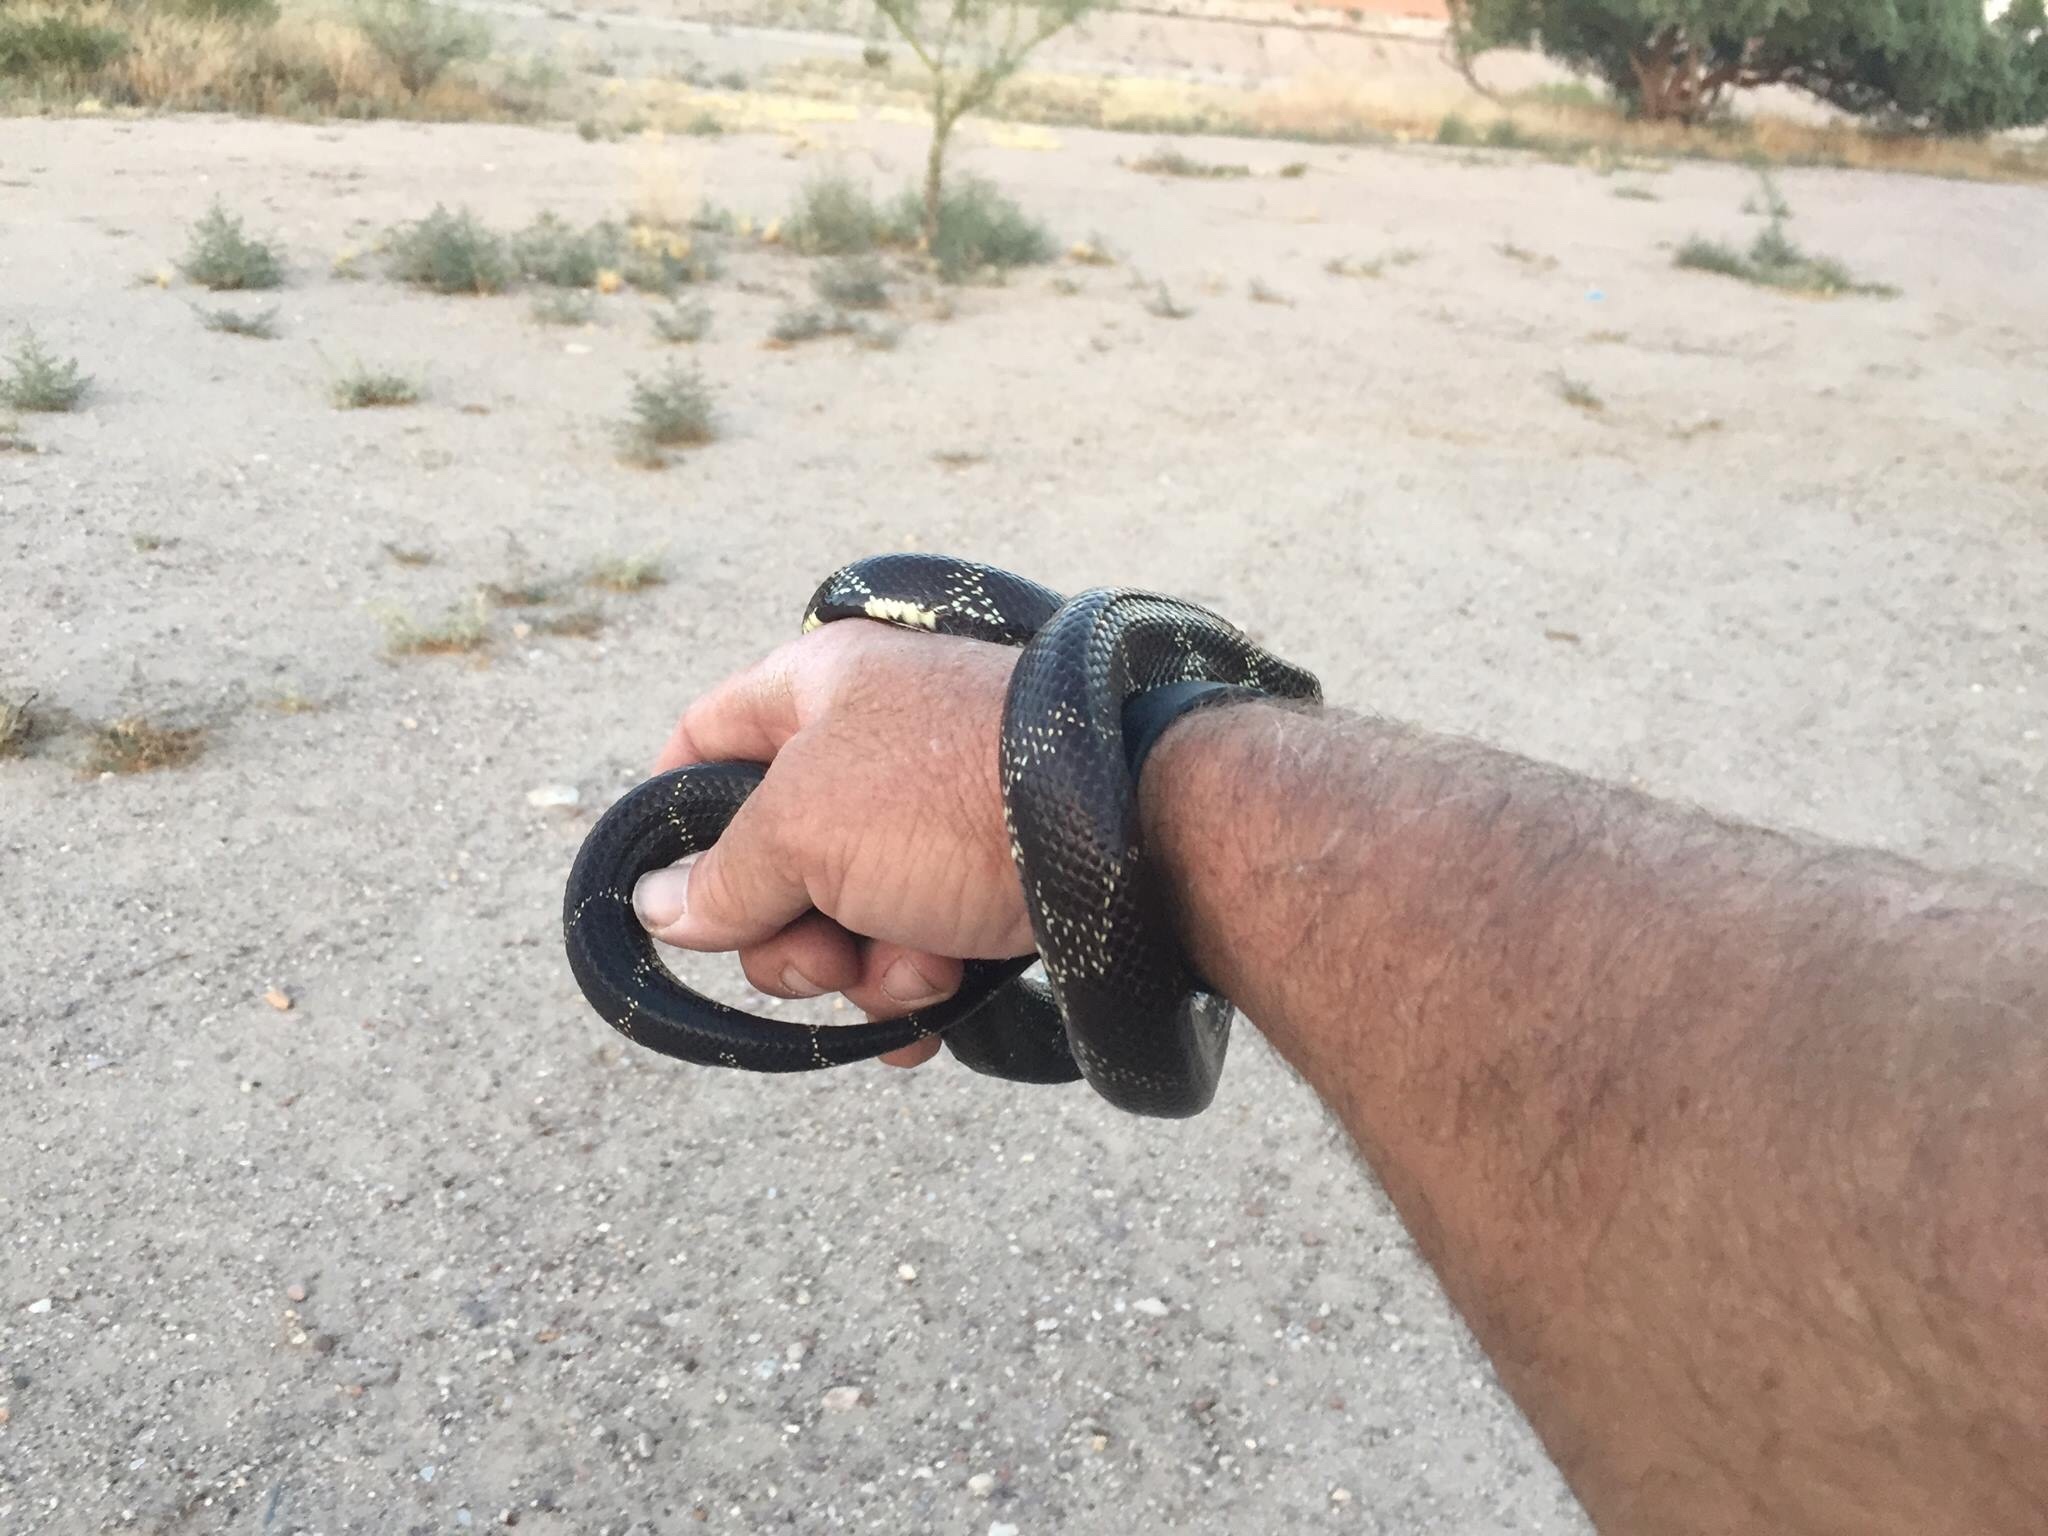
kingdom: Animalia
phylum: Chordata
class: Squamata
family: Colubridae
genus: Lampropeltis
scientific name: Lampropeltis californiae
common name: California kingsnake
